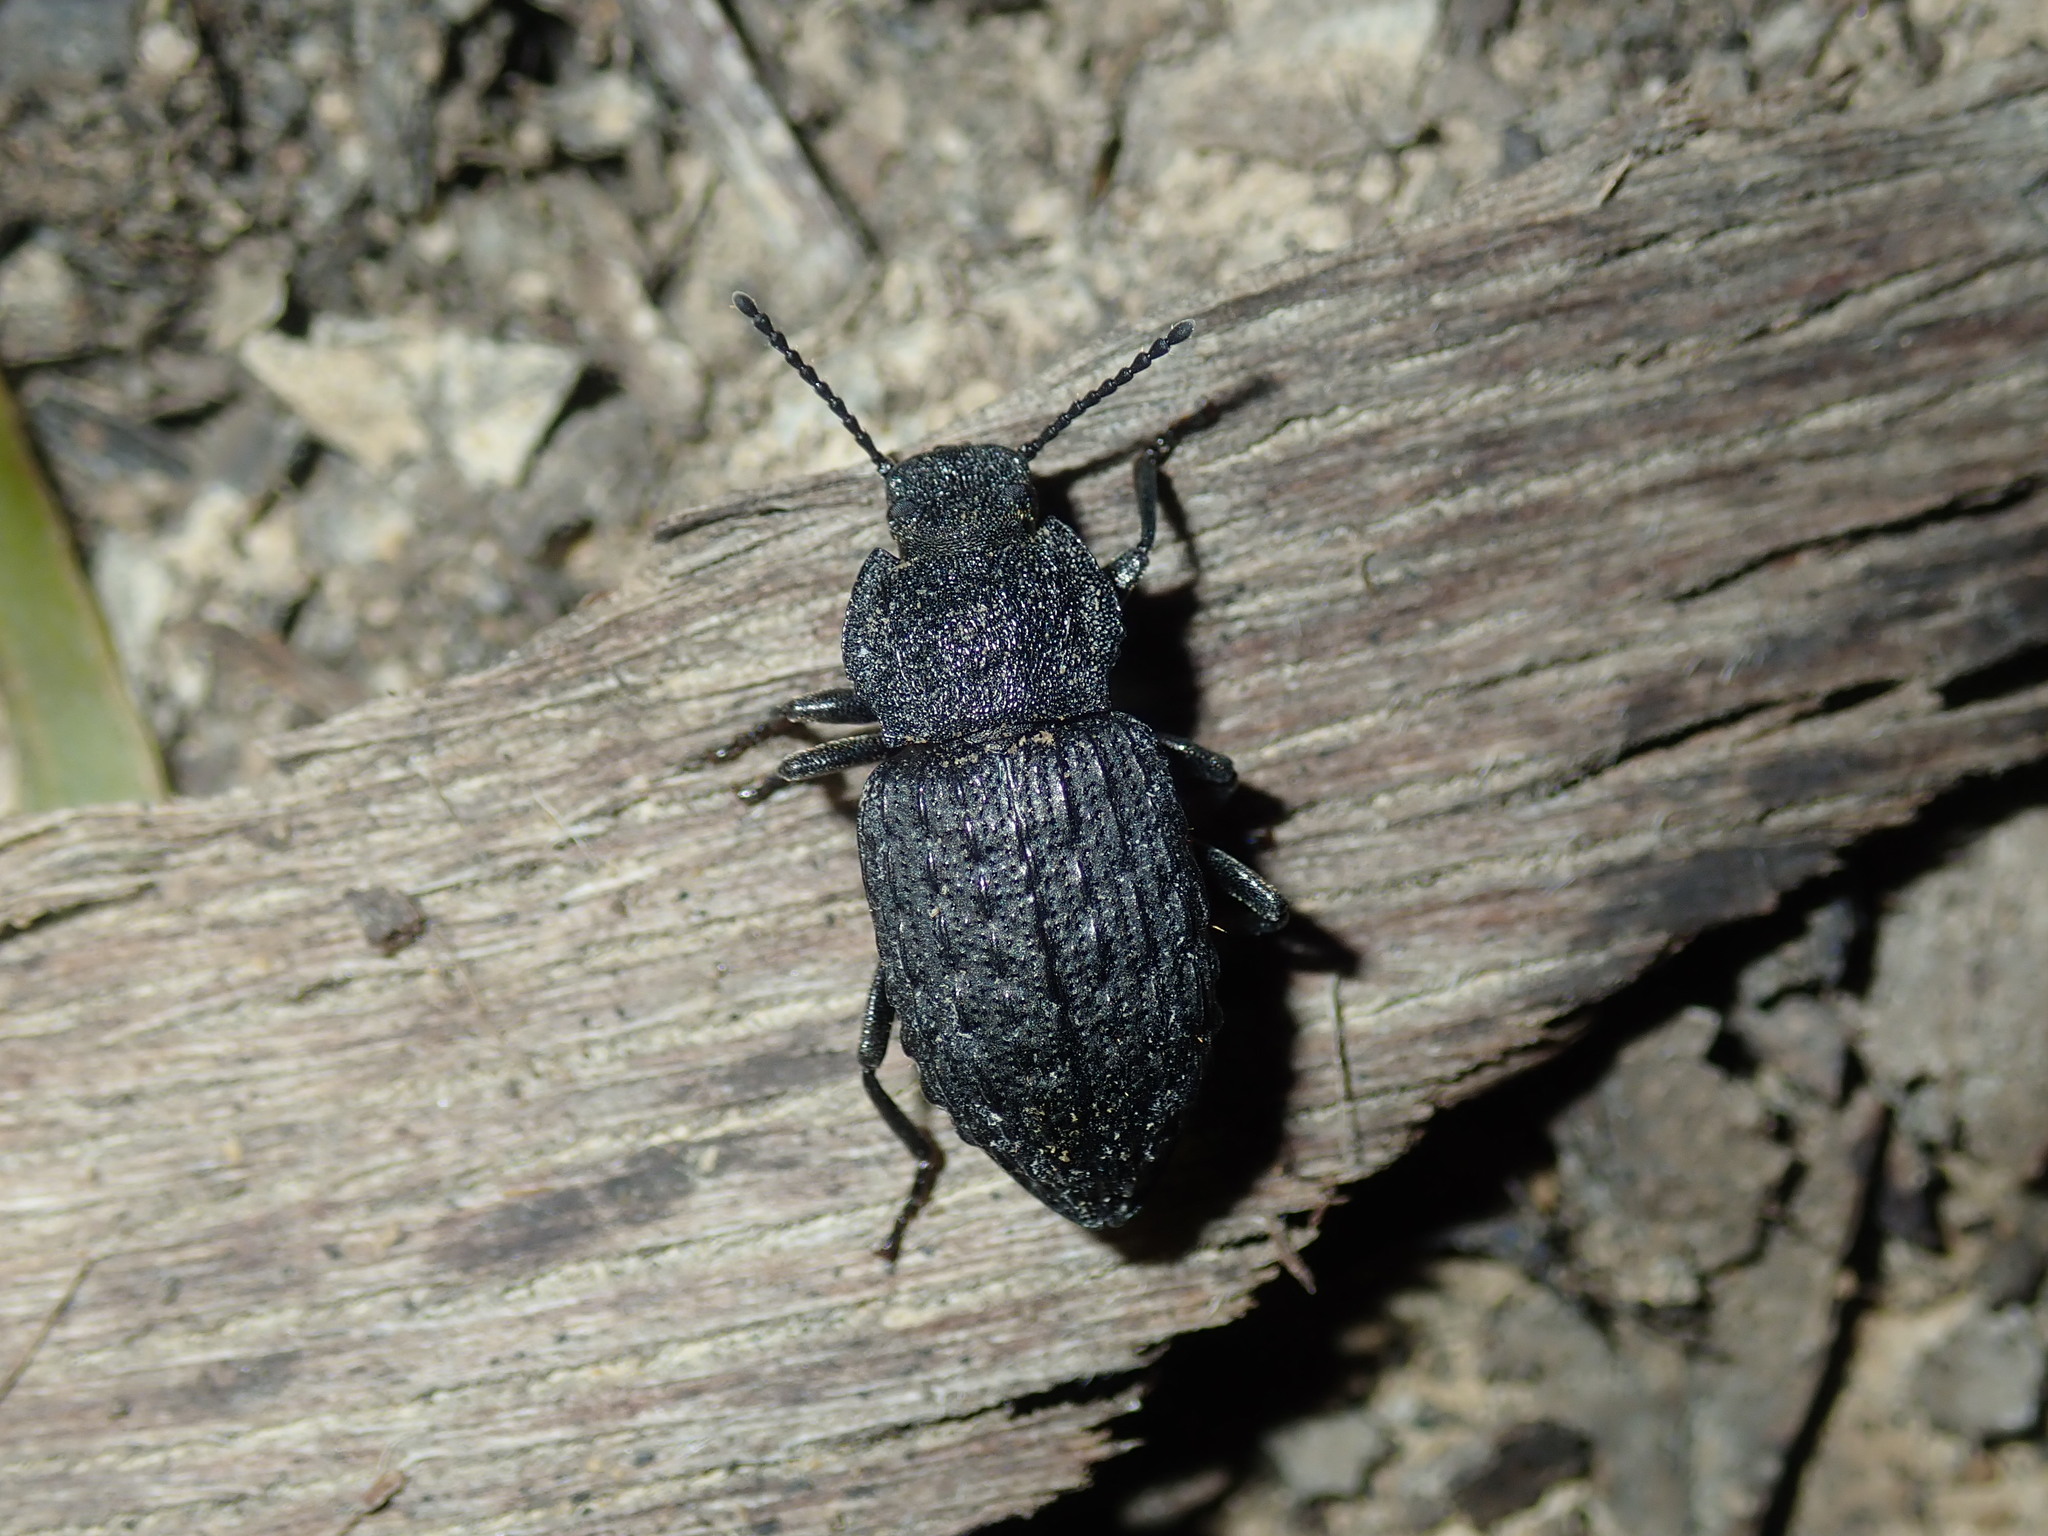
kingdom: Animalia
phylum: Arthropoda
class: Insecta
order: Coleoptera
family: Tenebrionidae
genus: Seirotrana
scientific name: Seirotrana
